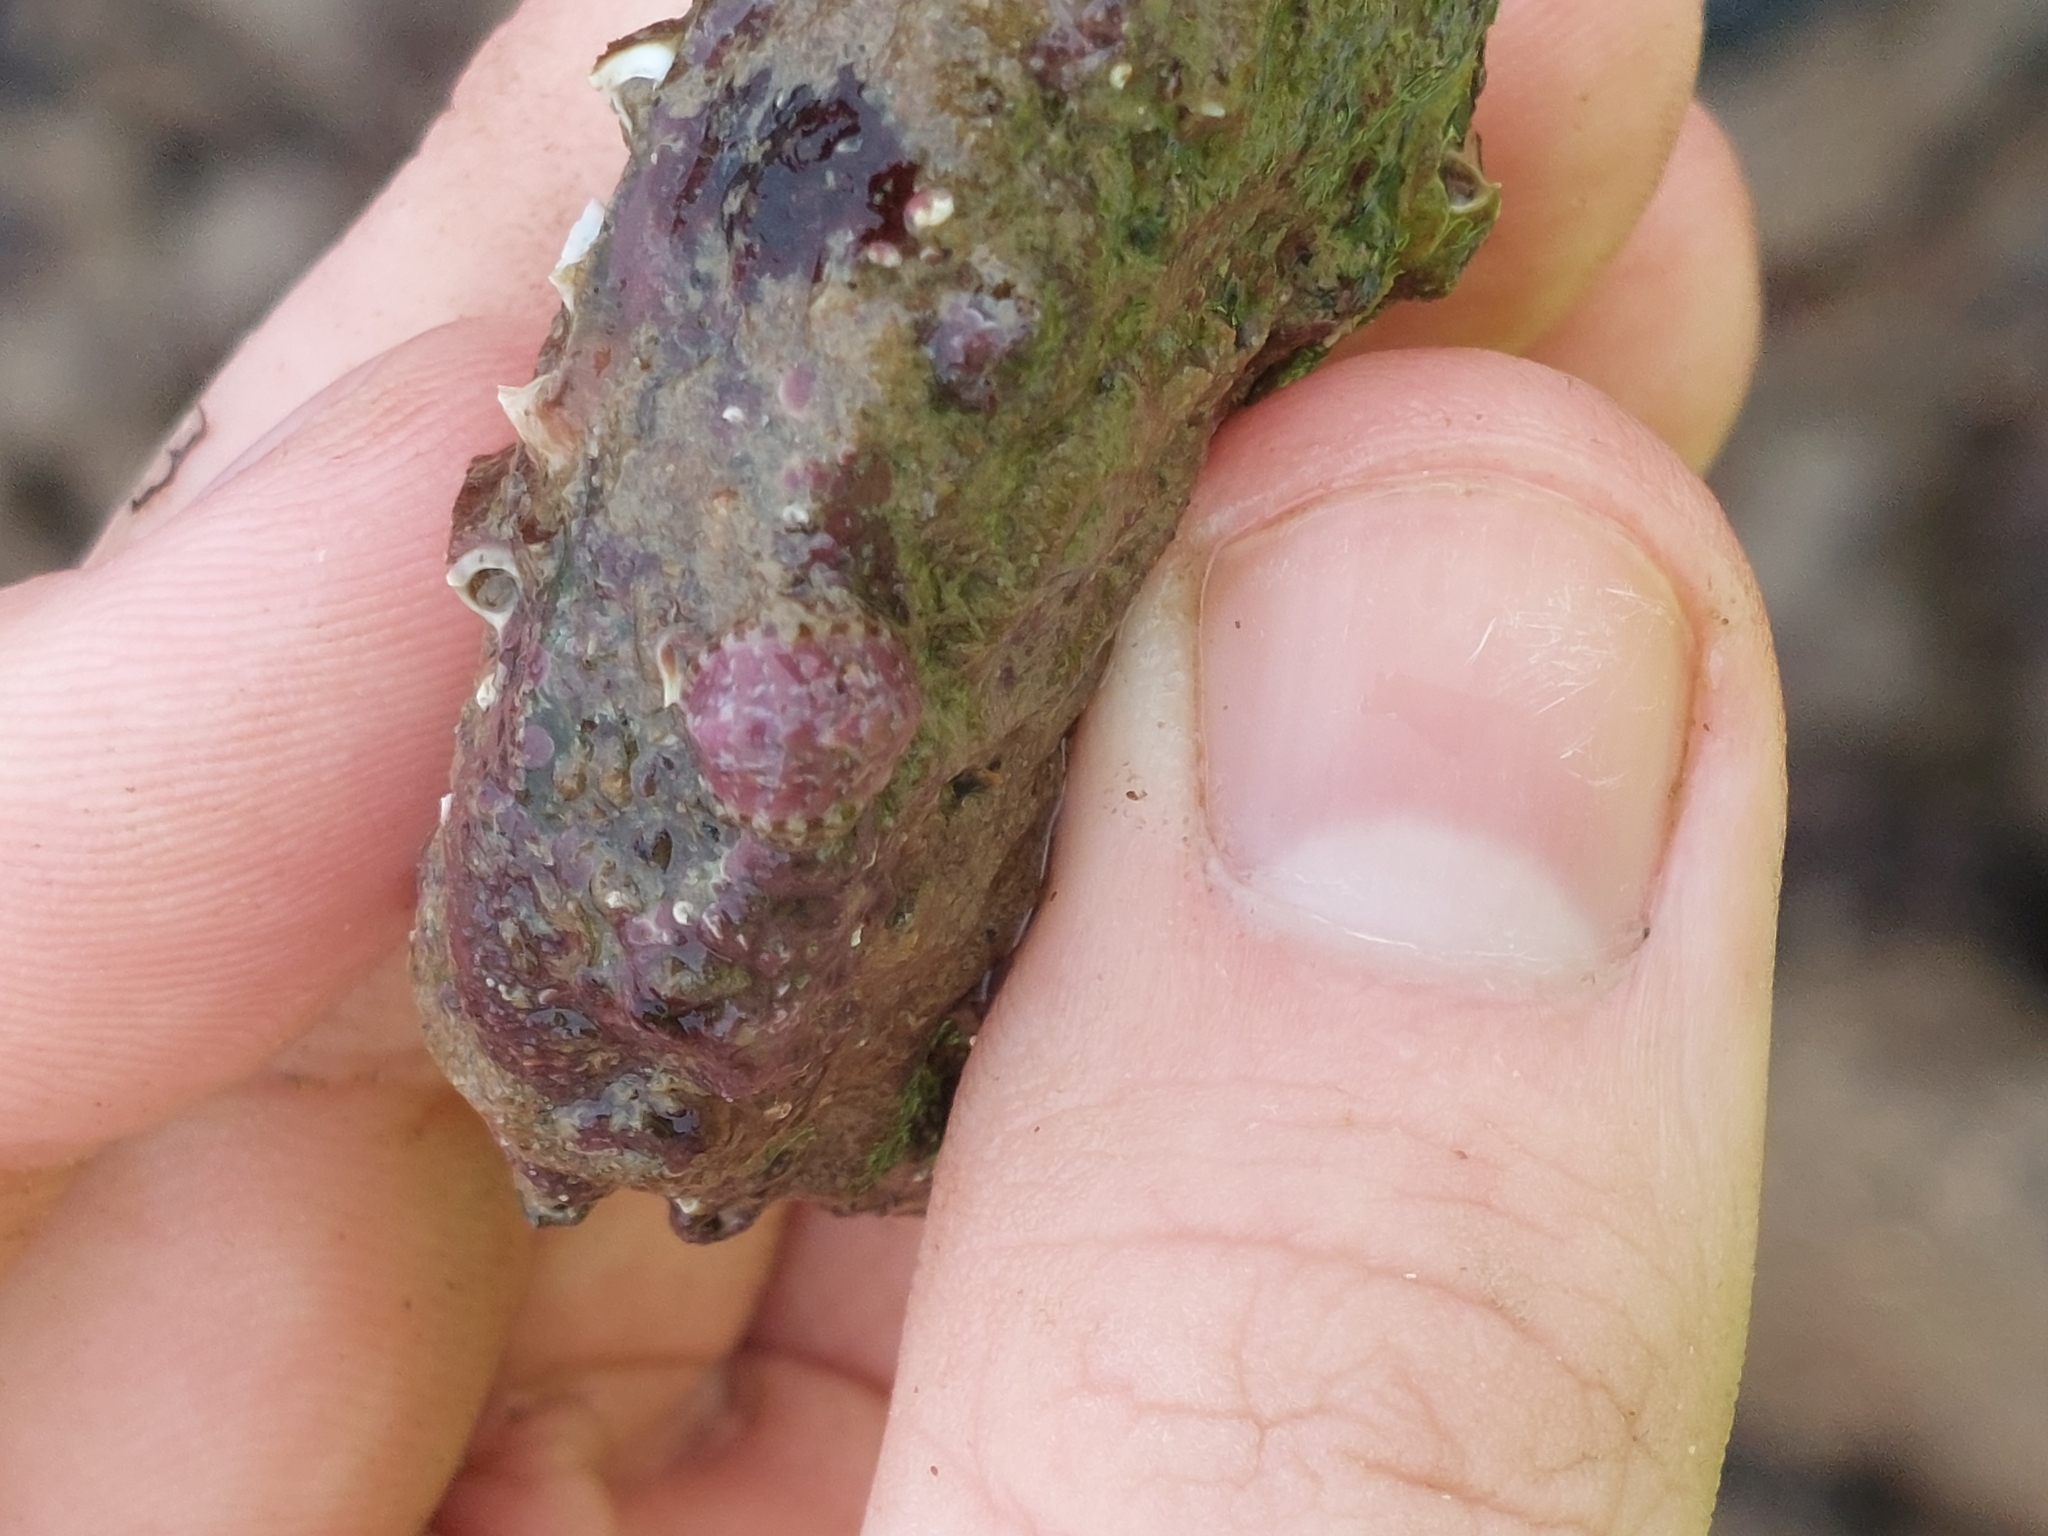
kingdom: Animalia
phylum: Mollusca
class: Polyplacophora
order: Chitonida
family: Tonicellidae
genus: Lepidochitona
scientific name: Lepidochitona cinerea
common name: Cinereous chiton
